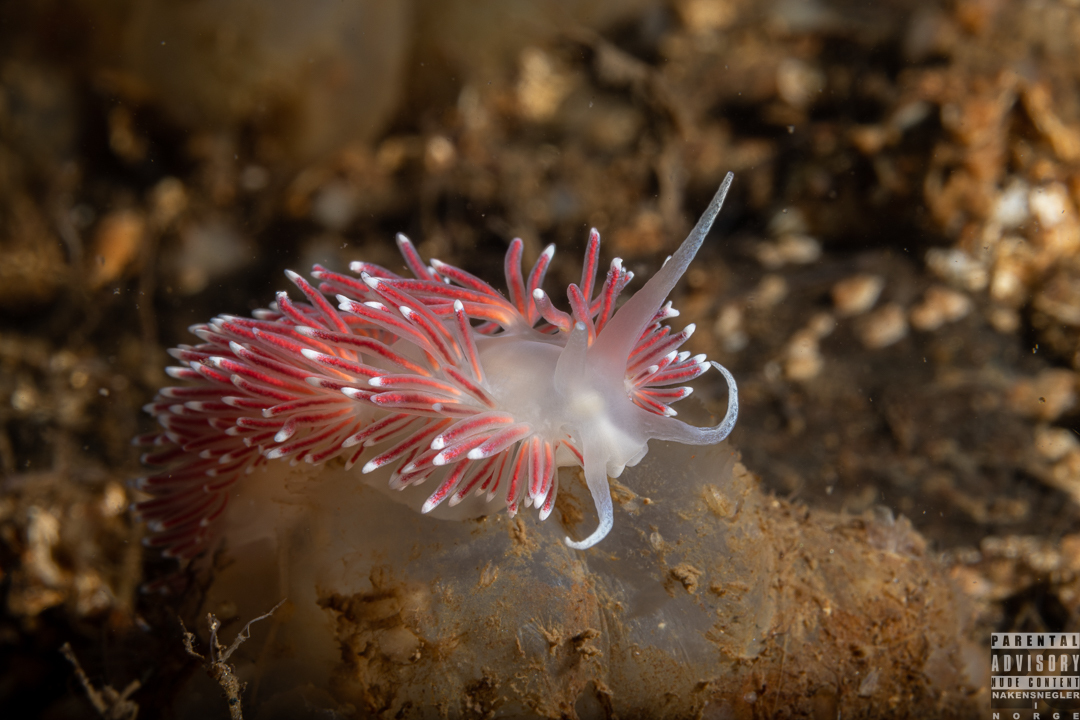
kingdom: Animalia
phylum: Mollusca
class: Gastropoda
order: Nudibranchia
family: Flabellinidae
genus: Carronella
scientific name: Carronella pellucida
